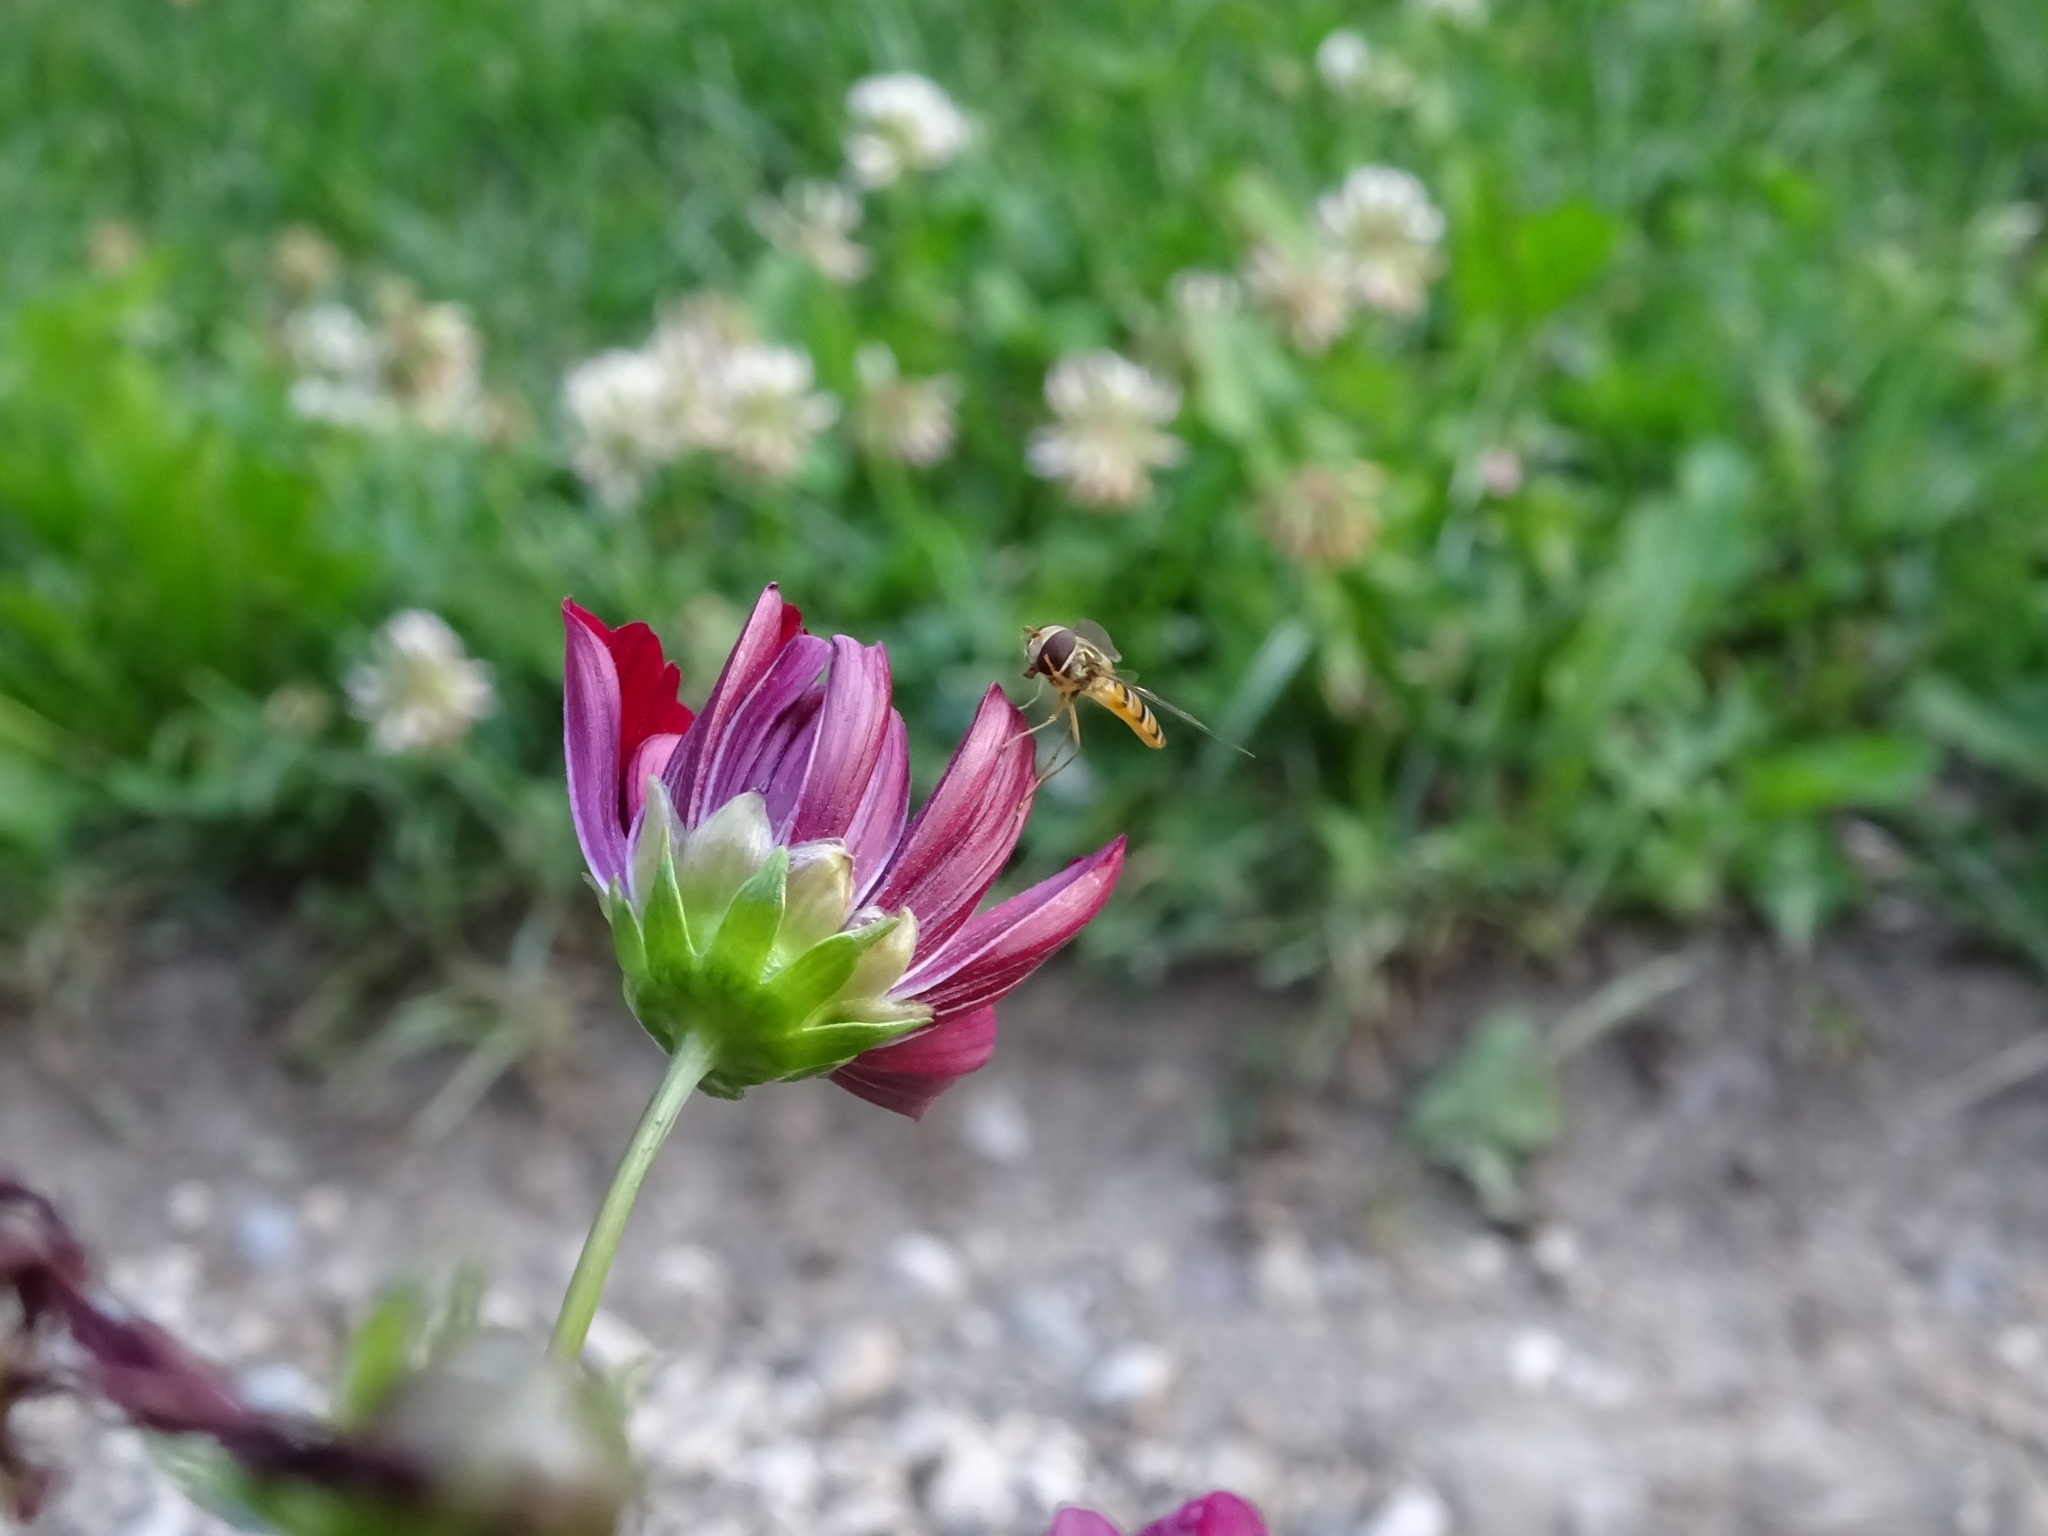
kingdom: Animalia
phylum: Arthropoda
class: Insecta
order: Diptera
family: Syrphidae
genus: Episyrphus
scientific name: Episyrphus balteatus
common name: Marmalade hoverfly
